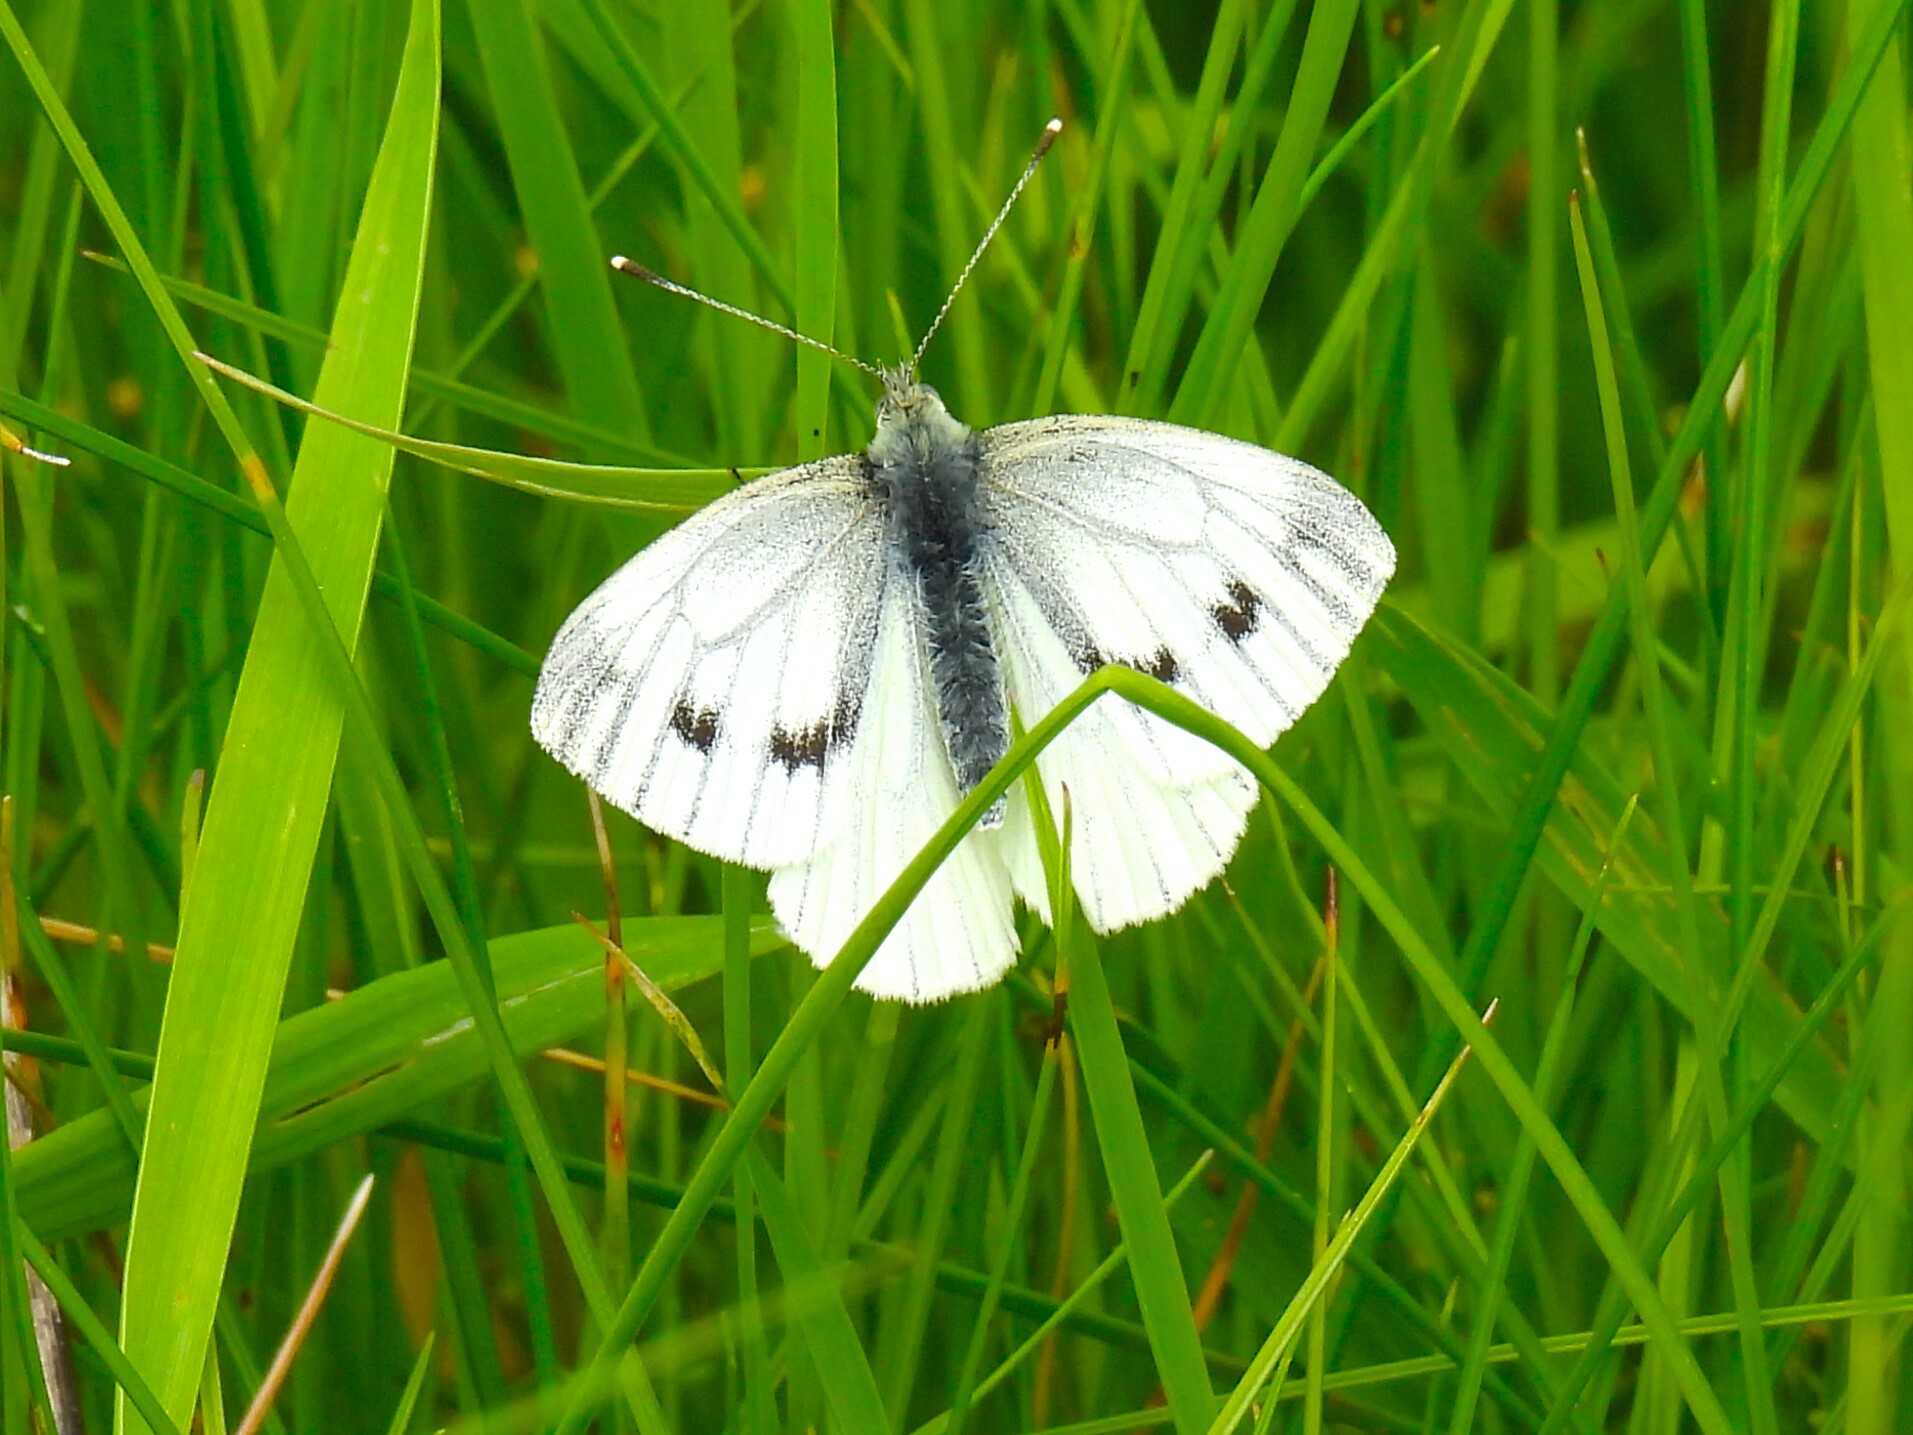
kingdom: Animalia
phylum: Arthropoda
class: Insecta
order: Lepidoptera
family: Pieridae
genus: Pieris
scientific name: Pieris napi
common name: Green-veined white
